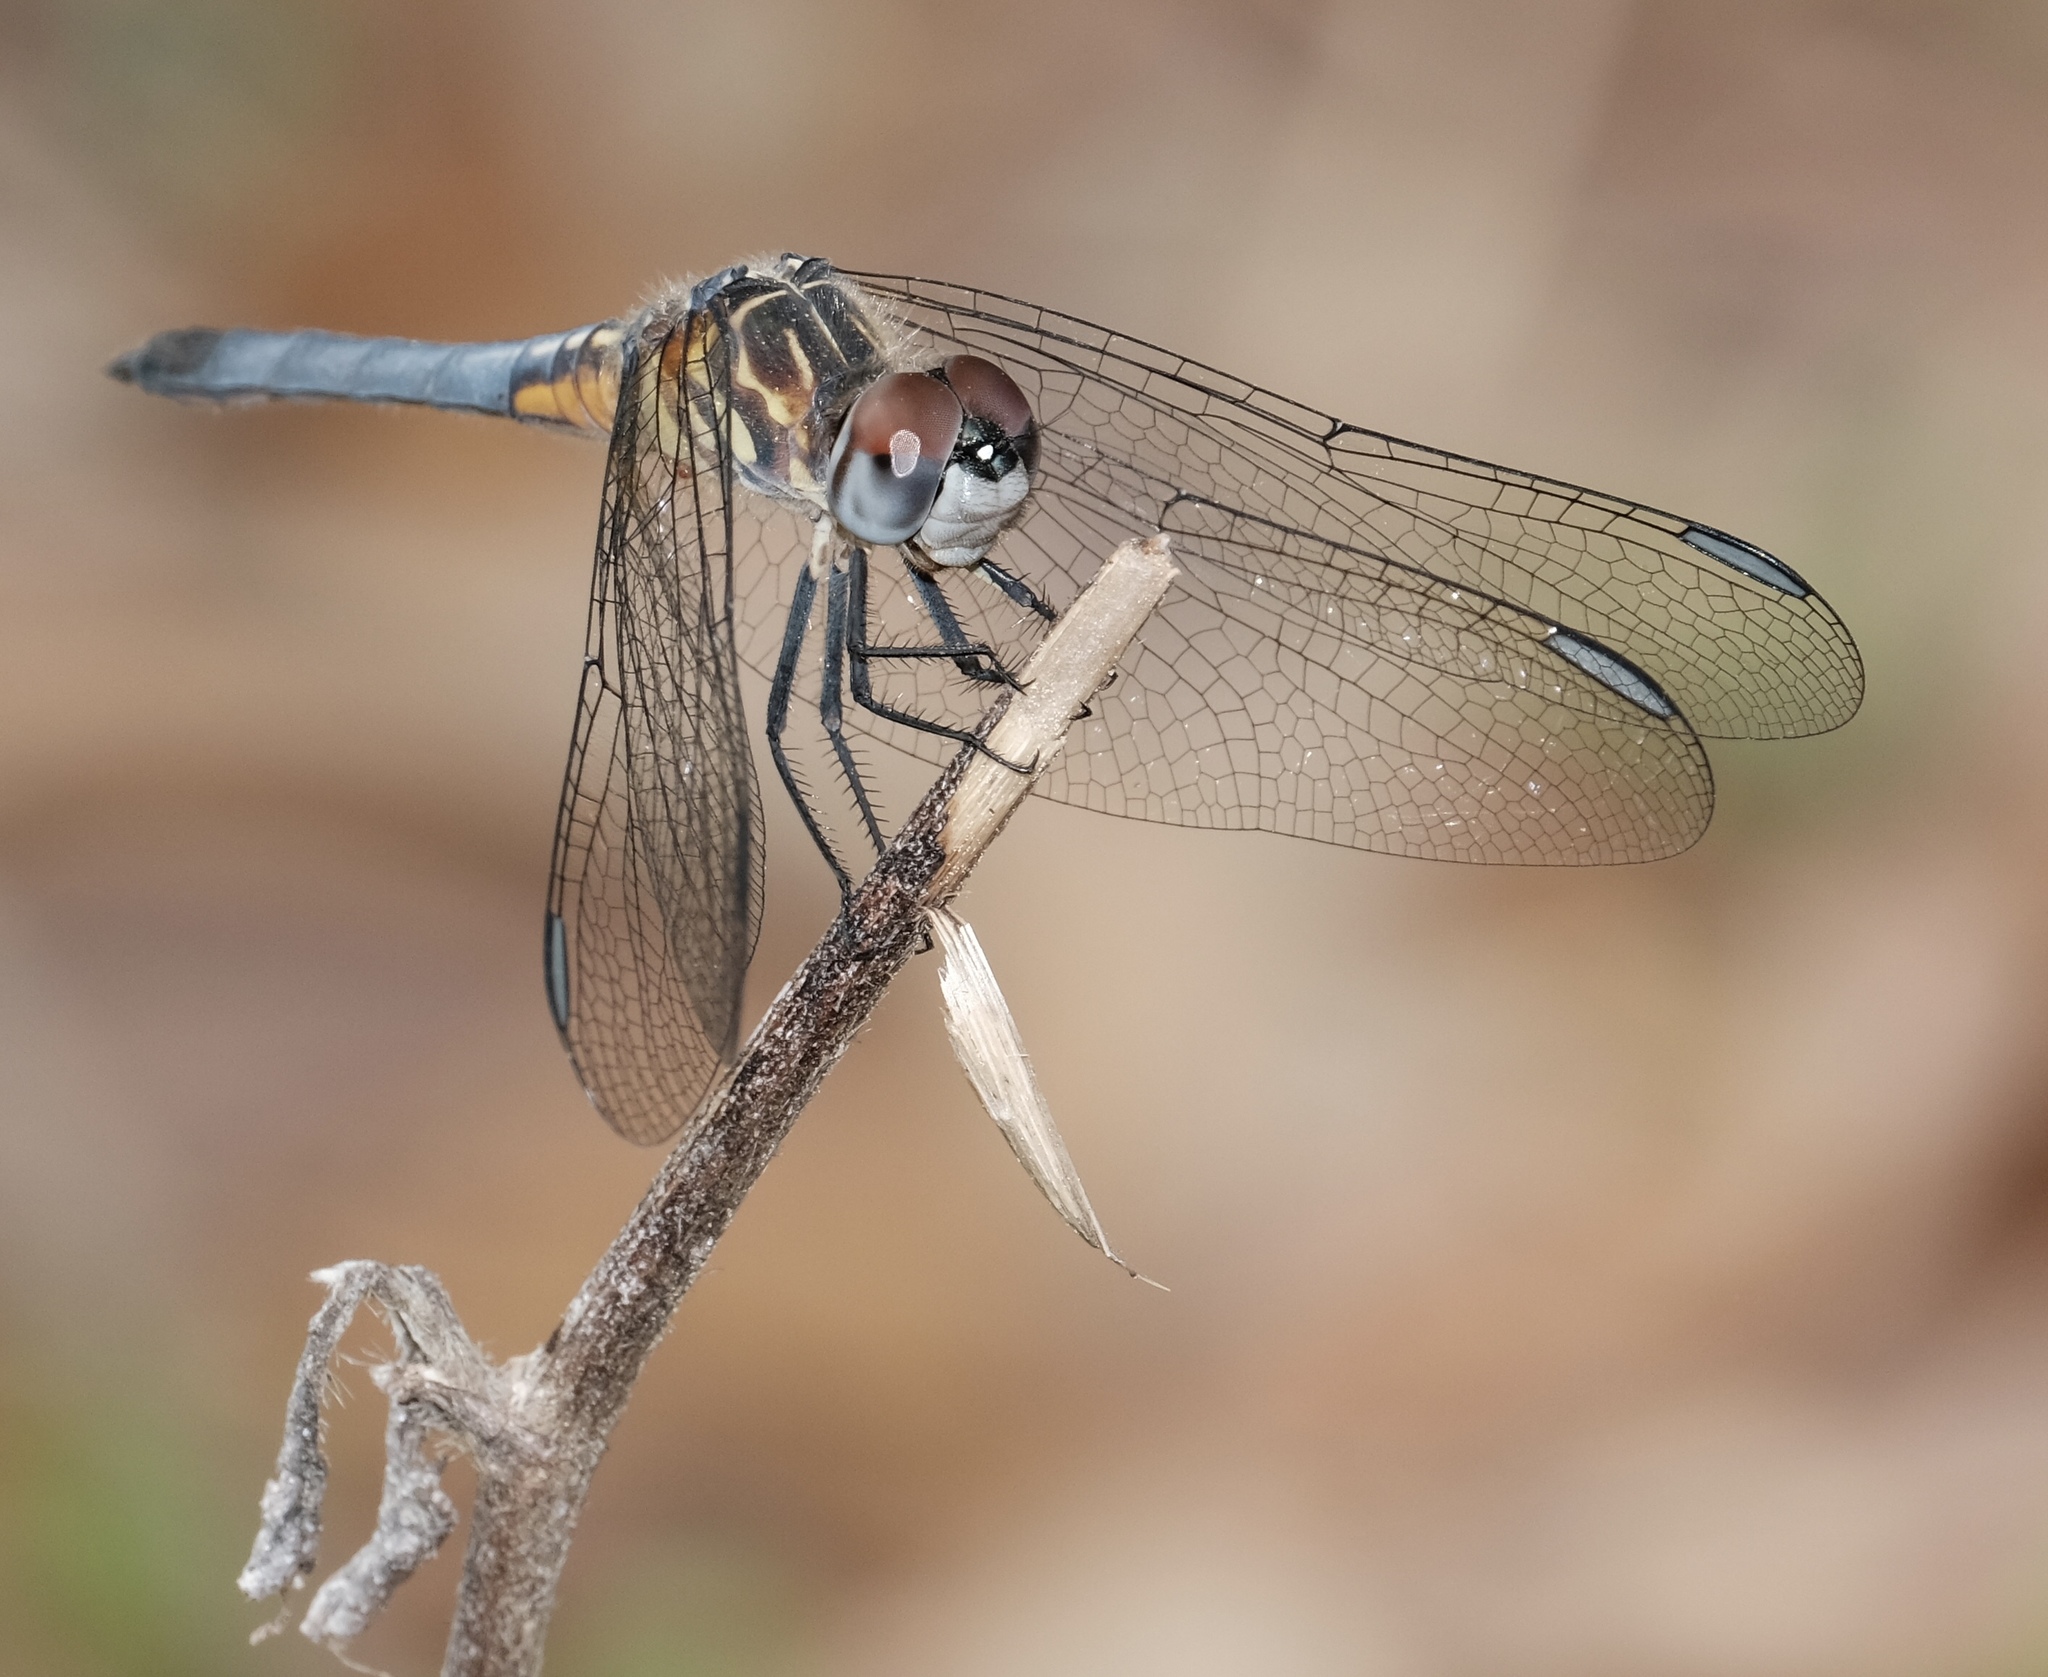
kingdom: Animalia
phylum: Arthropoda
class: Insecta
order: Odonata
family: Libellulidae
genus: Pachydiplax
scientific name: Pachydiplax longipennis
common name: Blue dasher
